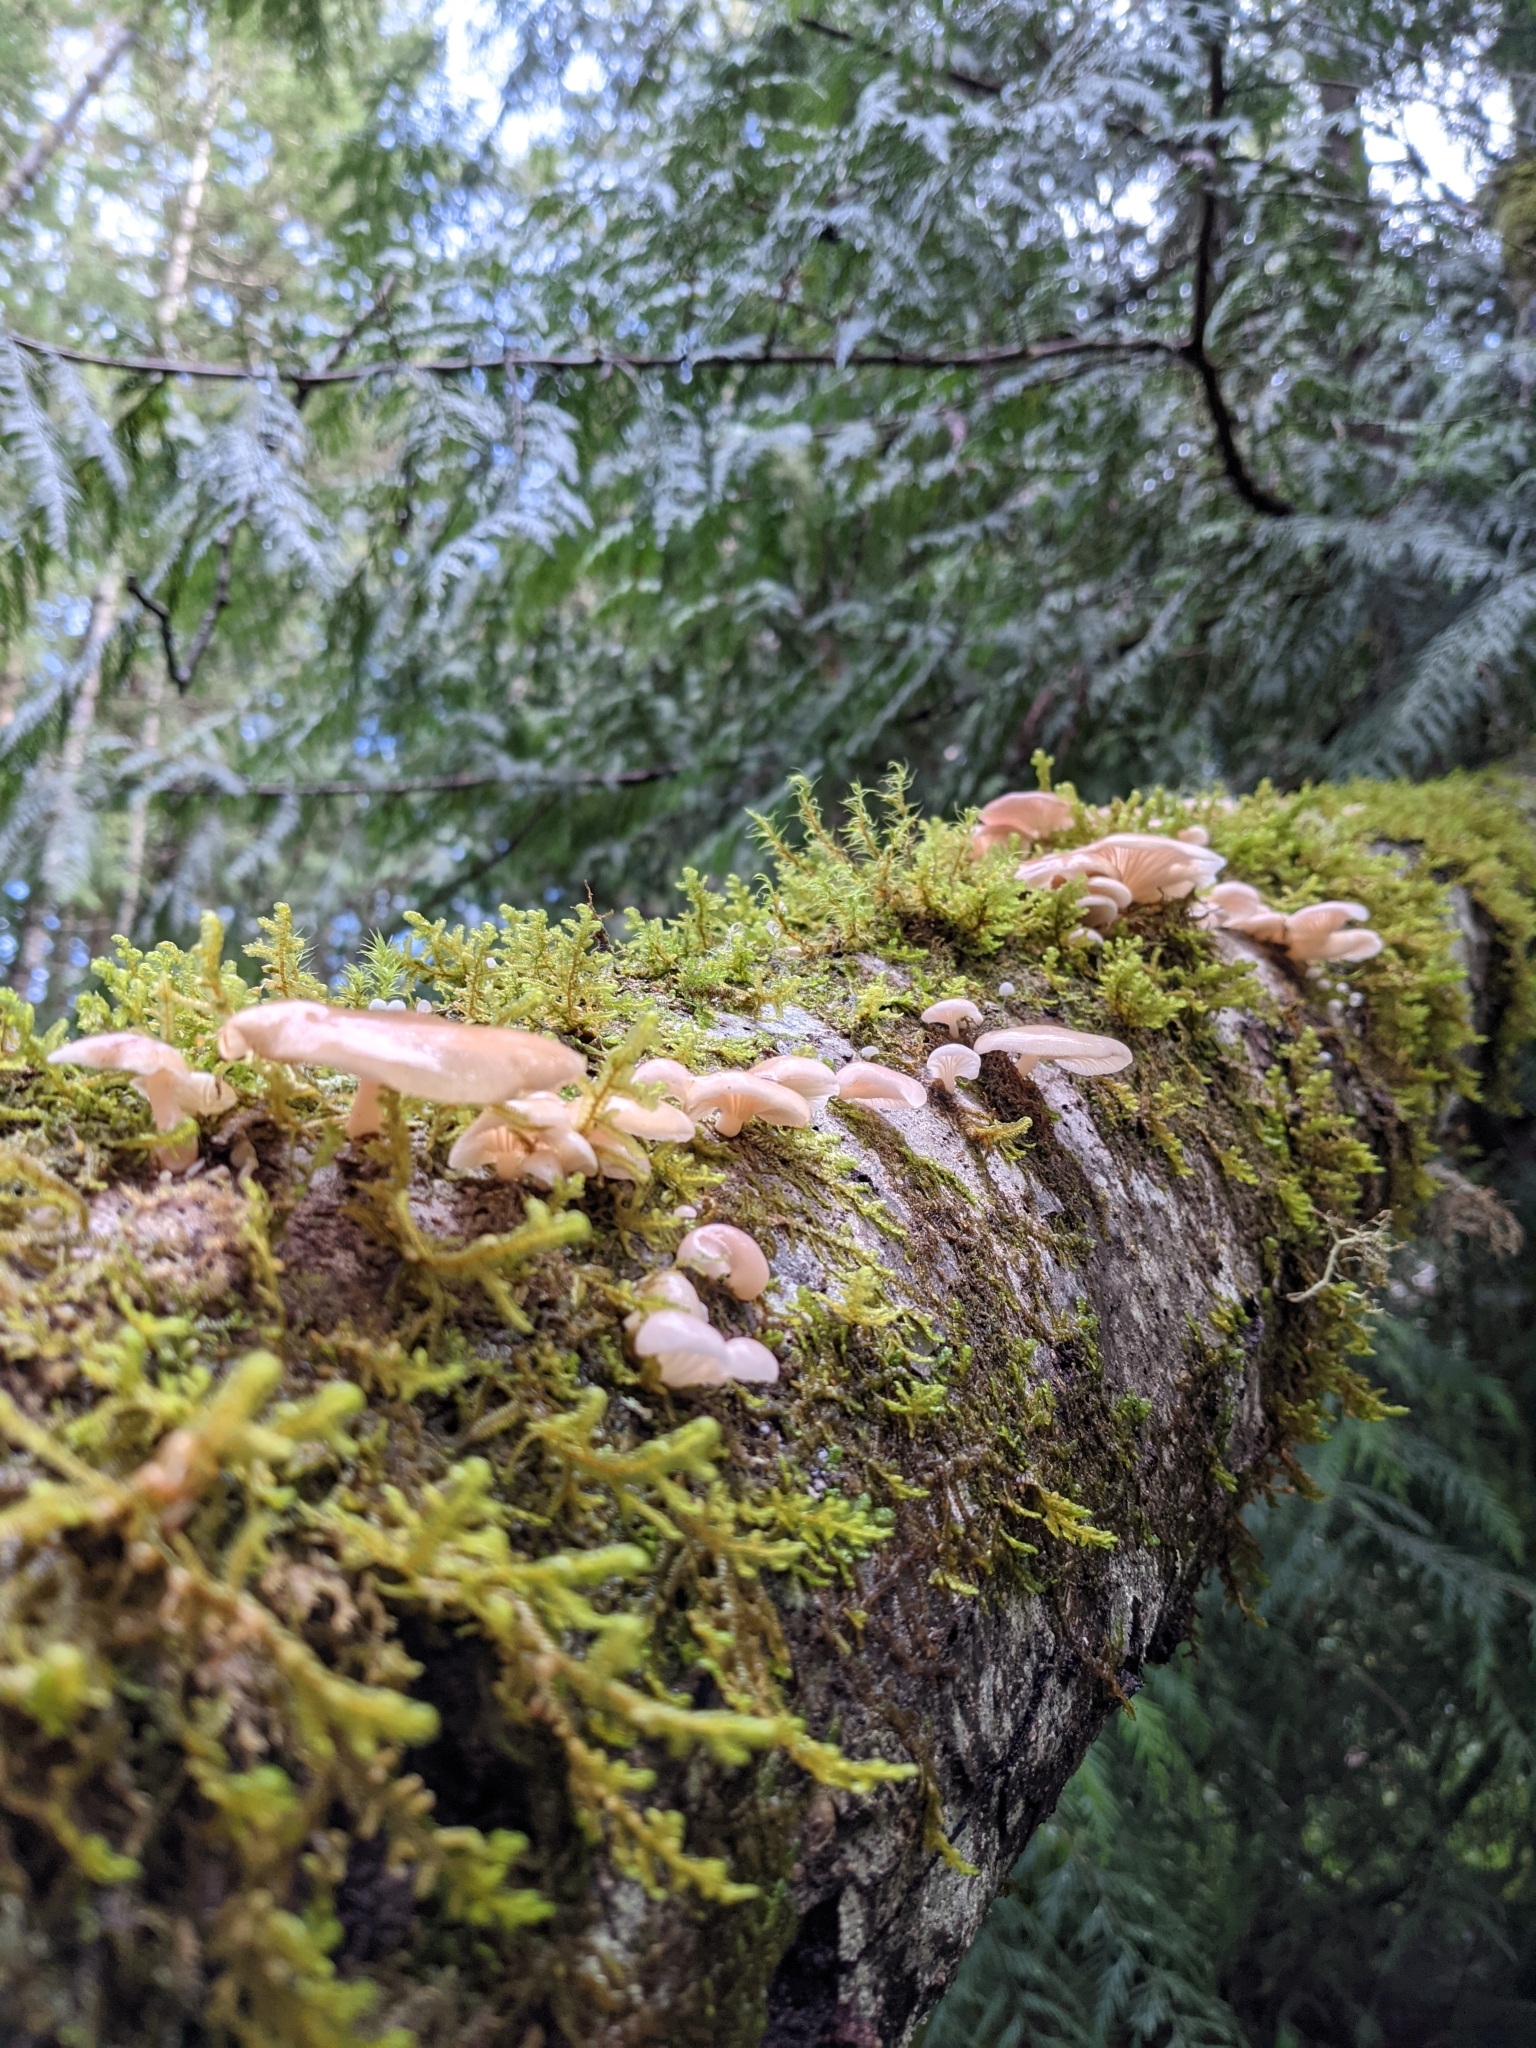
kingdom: Fungi
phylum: Basidiomycota
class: Agaricomycetes
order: Agaricales
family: Mycenaceae
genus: Panellus
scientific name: Panellus longinquus
